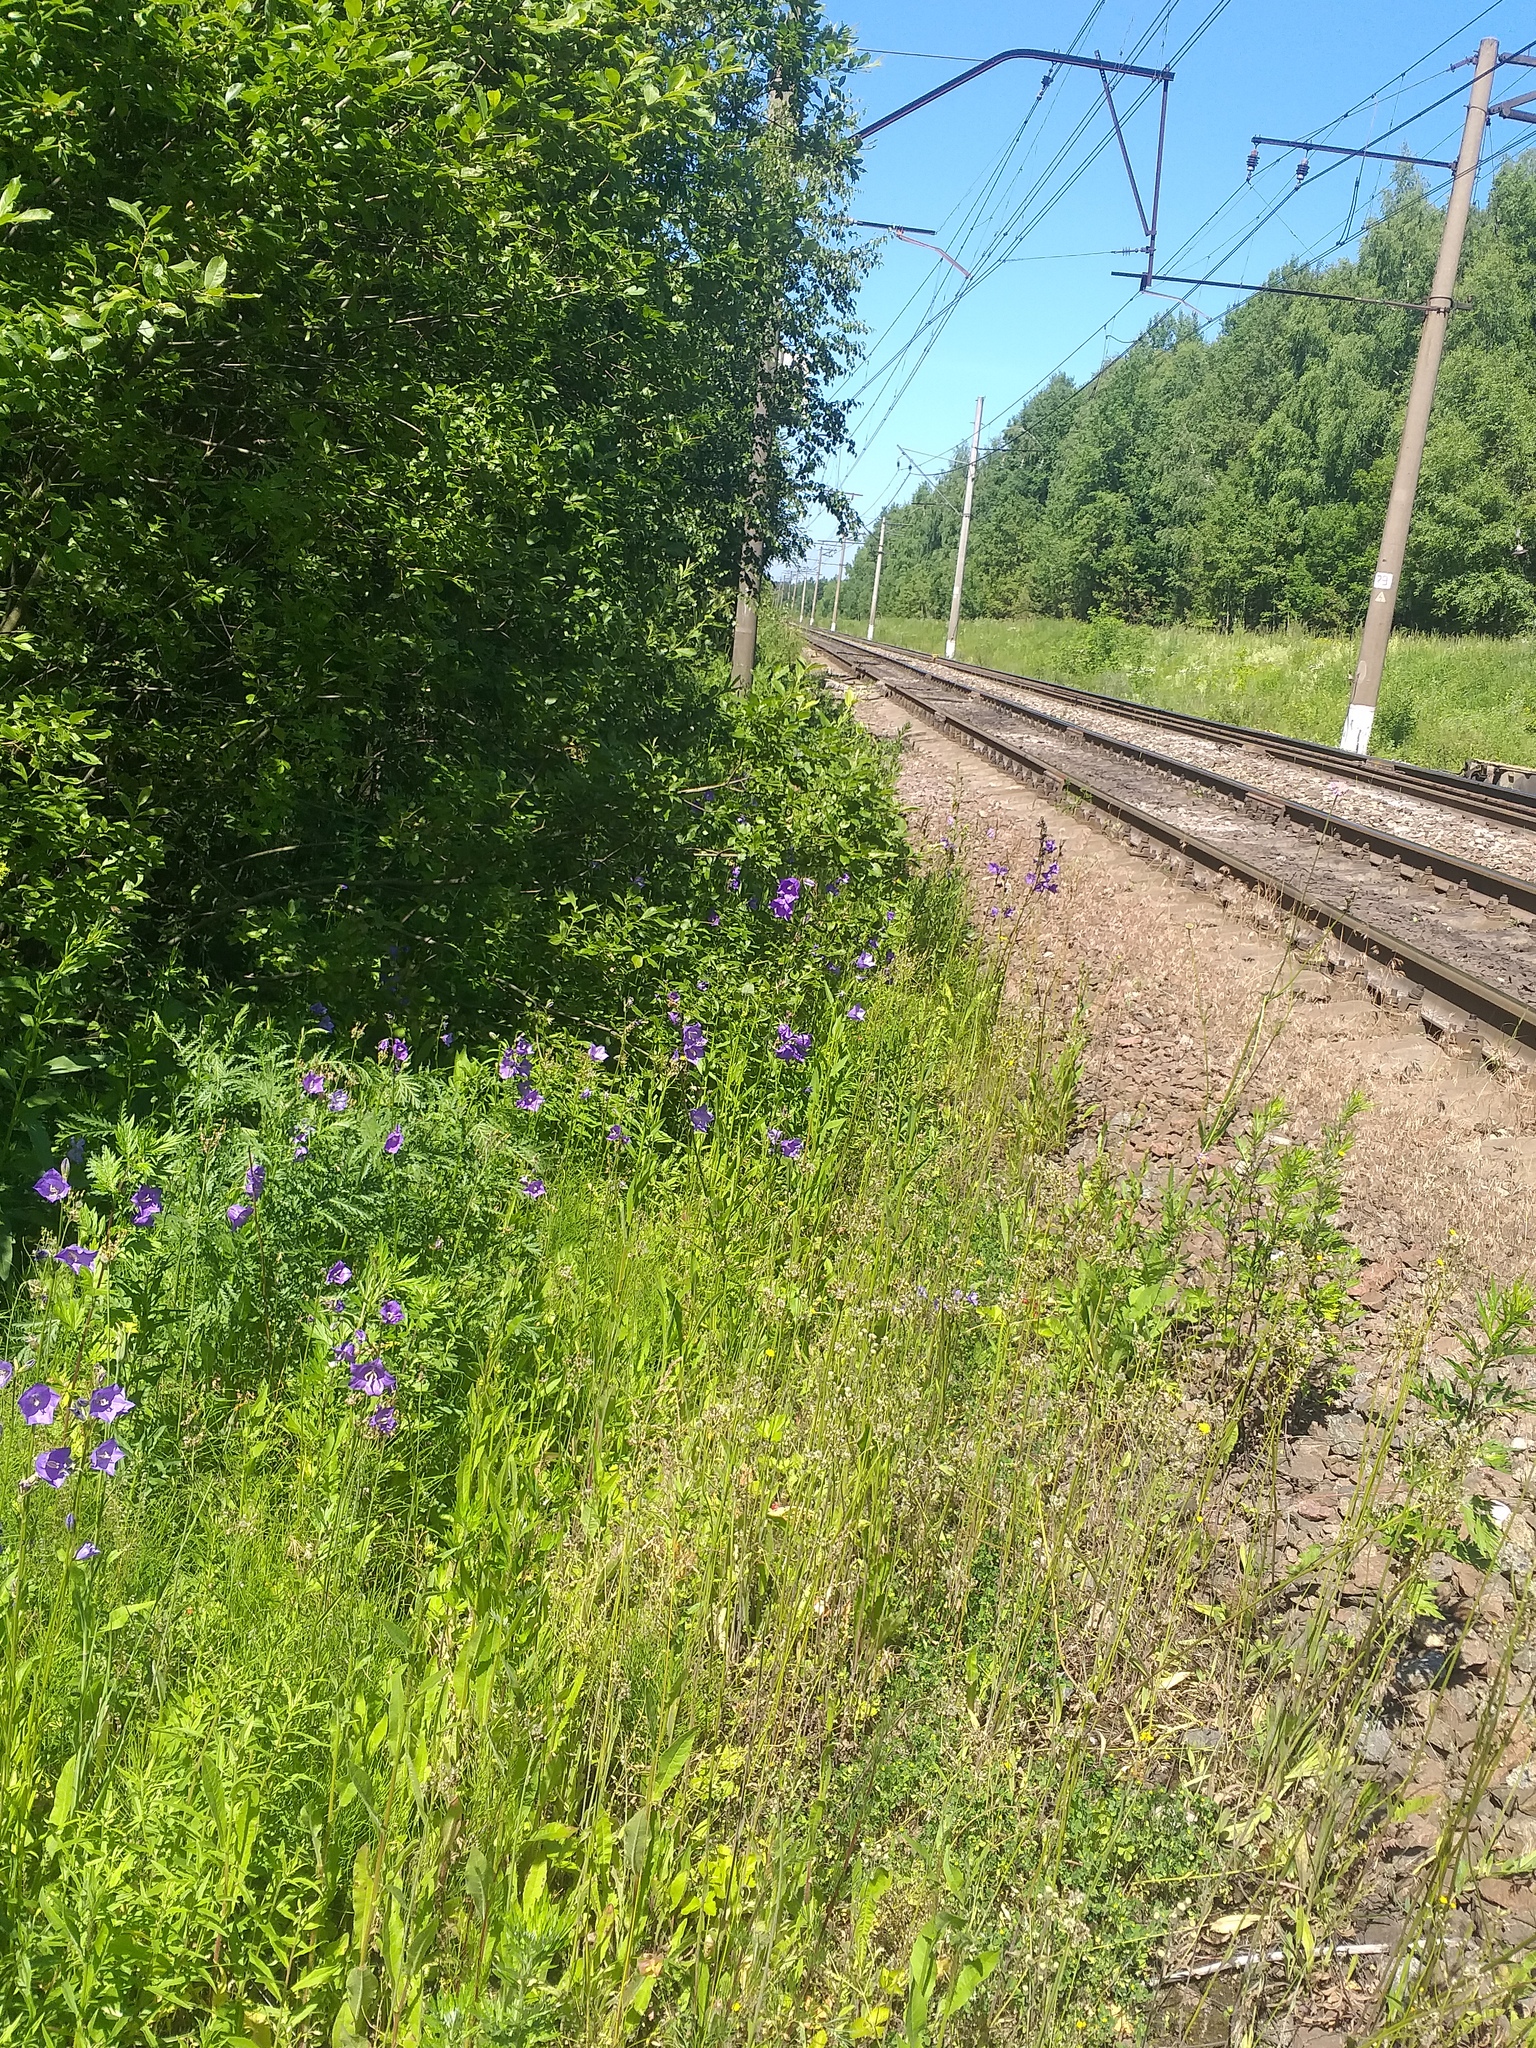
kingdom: Plantae
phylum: Tracheophyta
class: Magnoliopsida
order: Asterales
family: Campanulaceae
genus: Campanula
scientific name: Campanula persicifolia
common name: Peach-leaved bellflower
